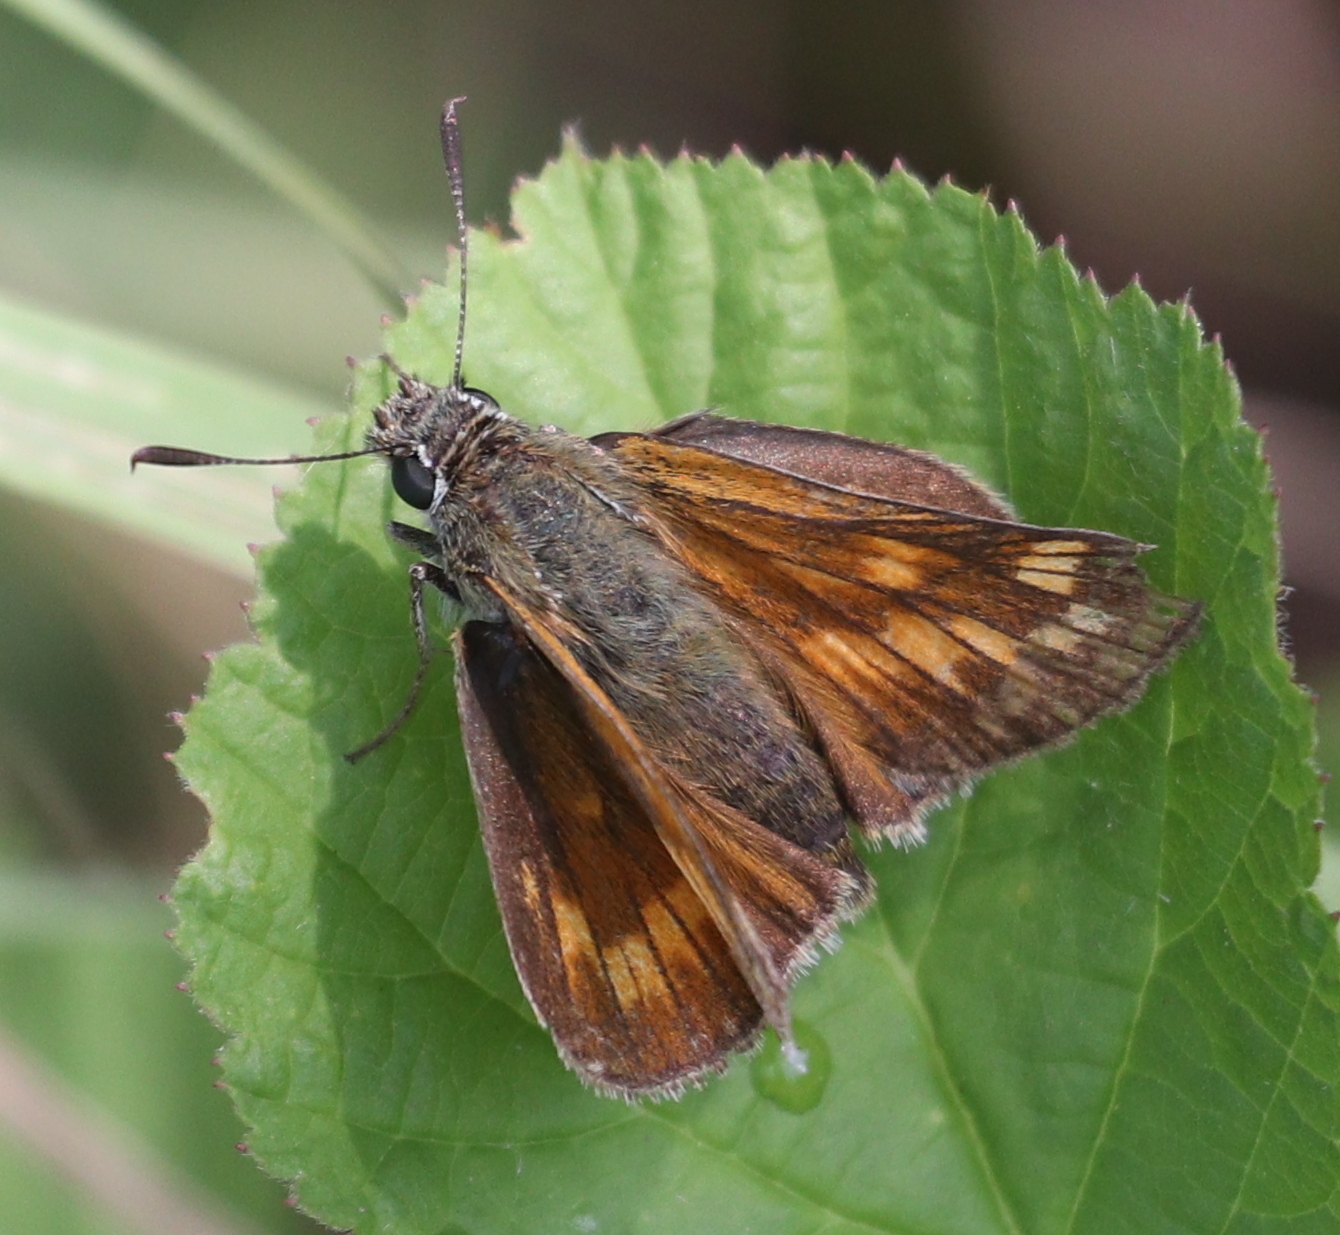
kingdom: Animalia
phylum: Arthropoda
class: Insecta
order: Lepidoptera
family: Hesperiidae
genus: Ochlodes
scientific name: Ochlodes venata
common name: Large skipper
